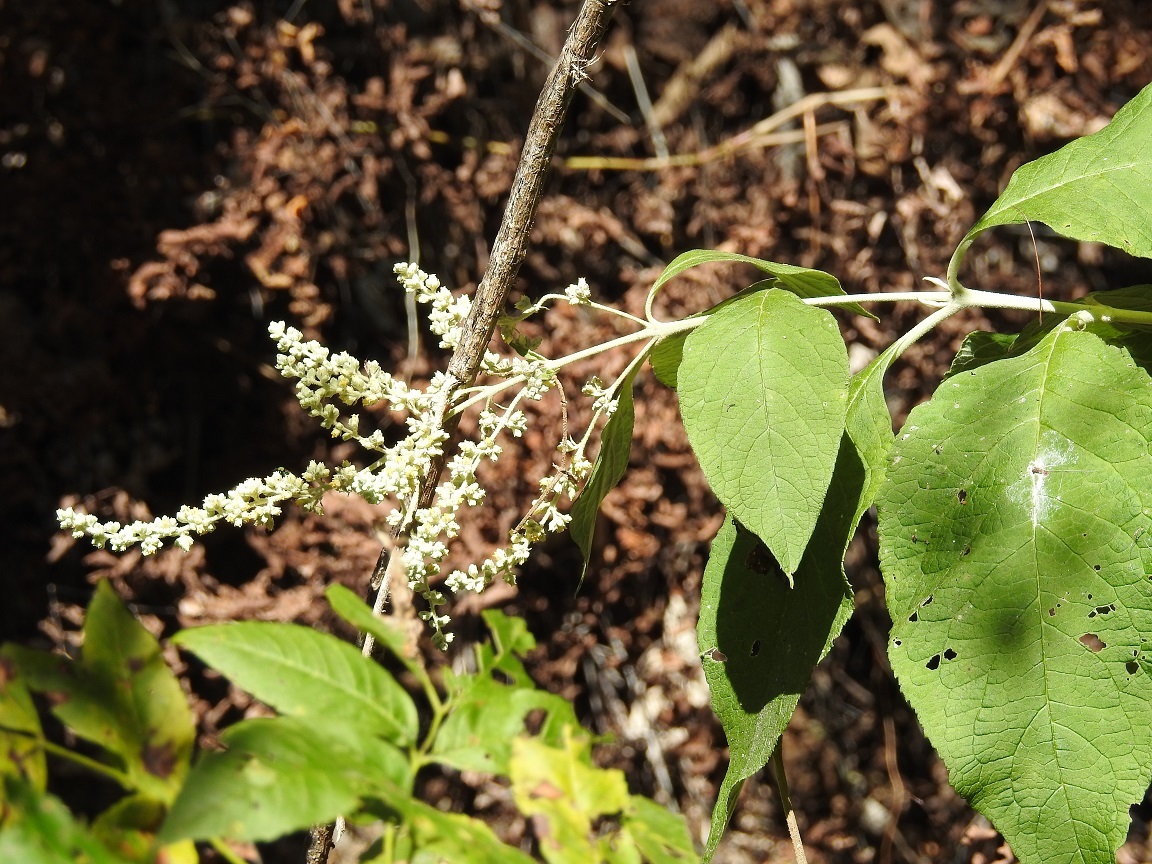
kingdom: Plantae
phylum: Tracheophyta
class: Magnoliopsida
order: Lamiales
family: Scrophulariaceae
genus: Buddleja
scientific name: Buddleja americana
